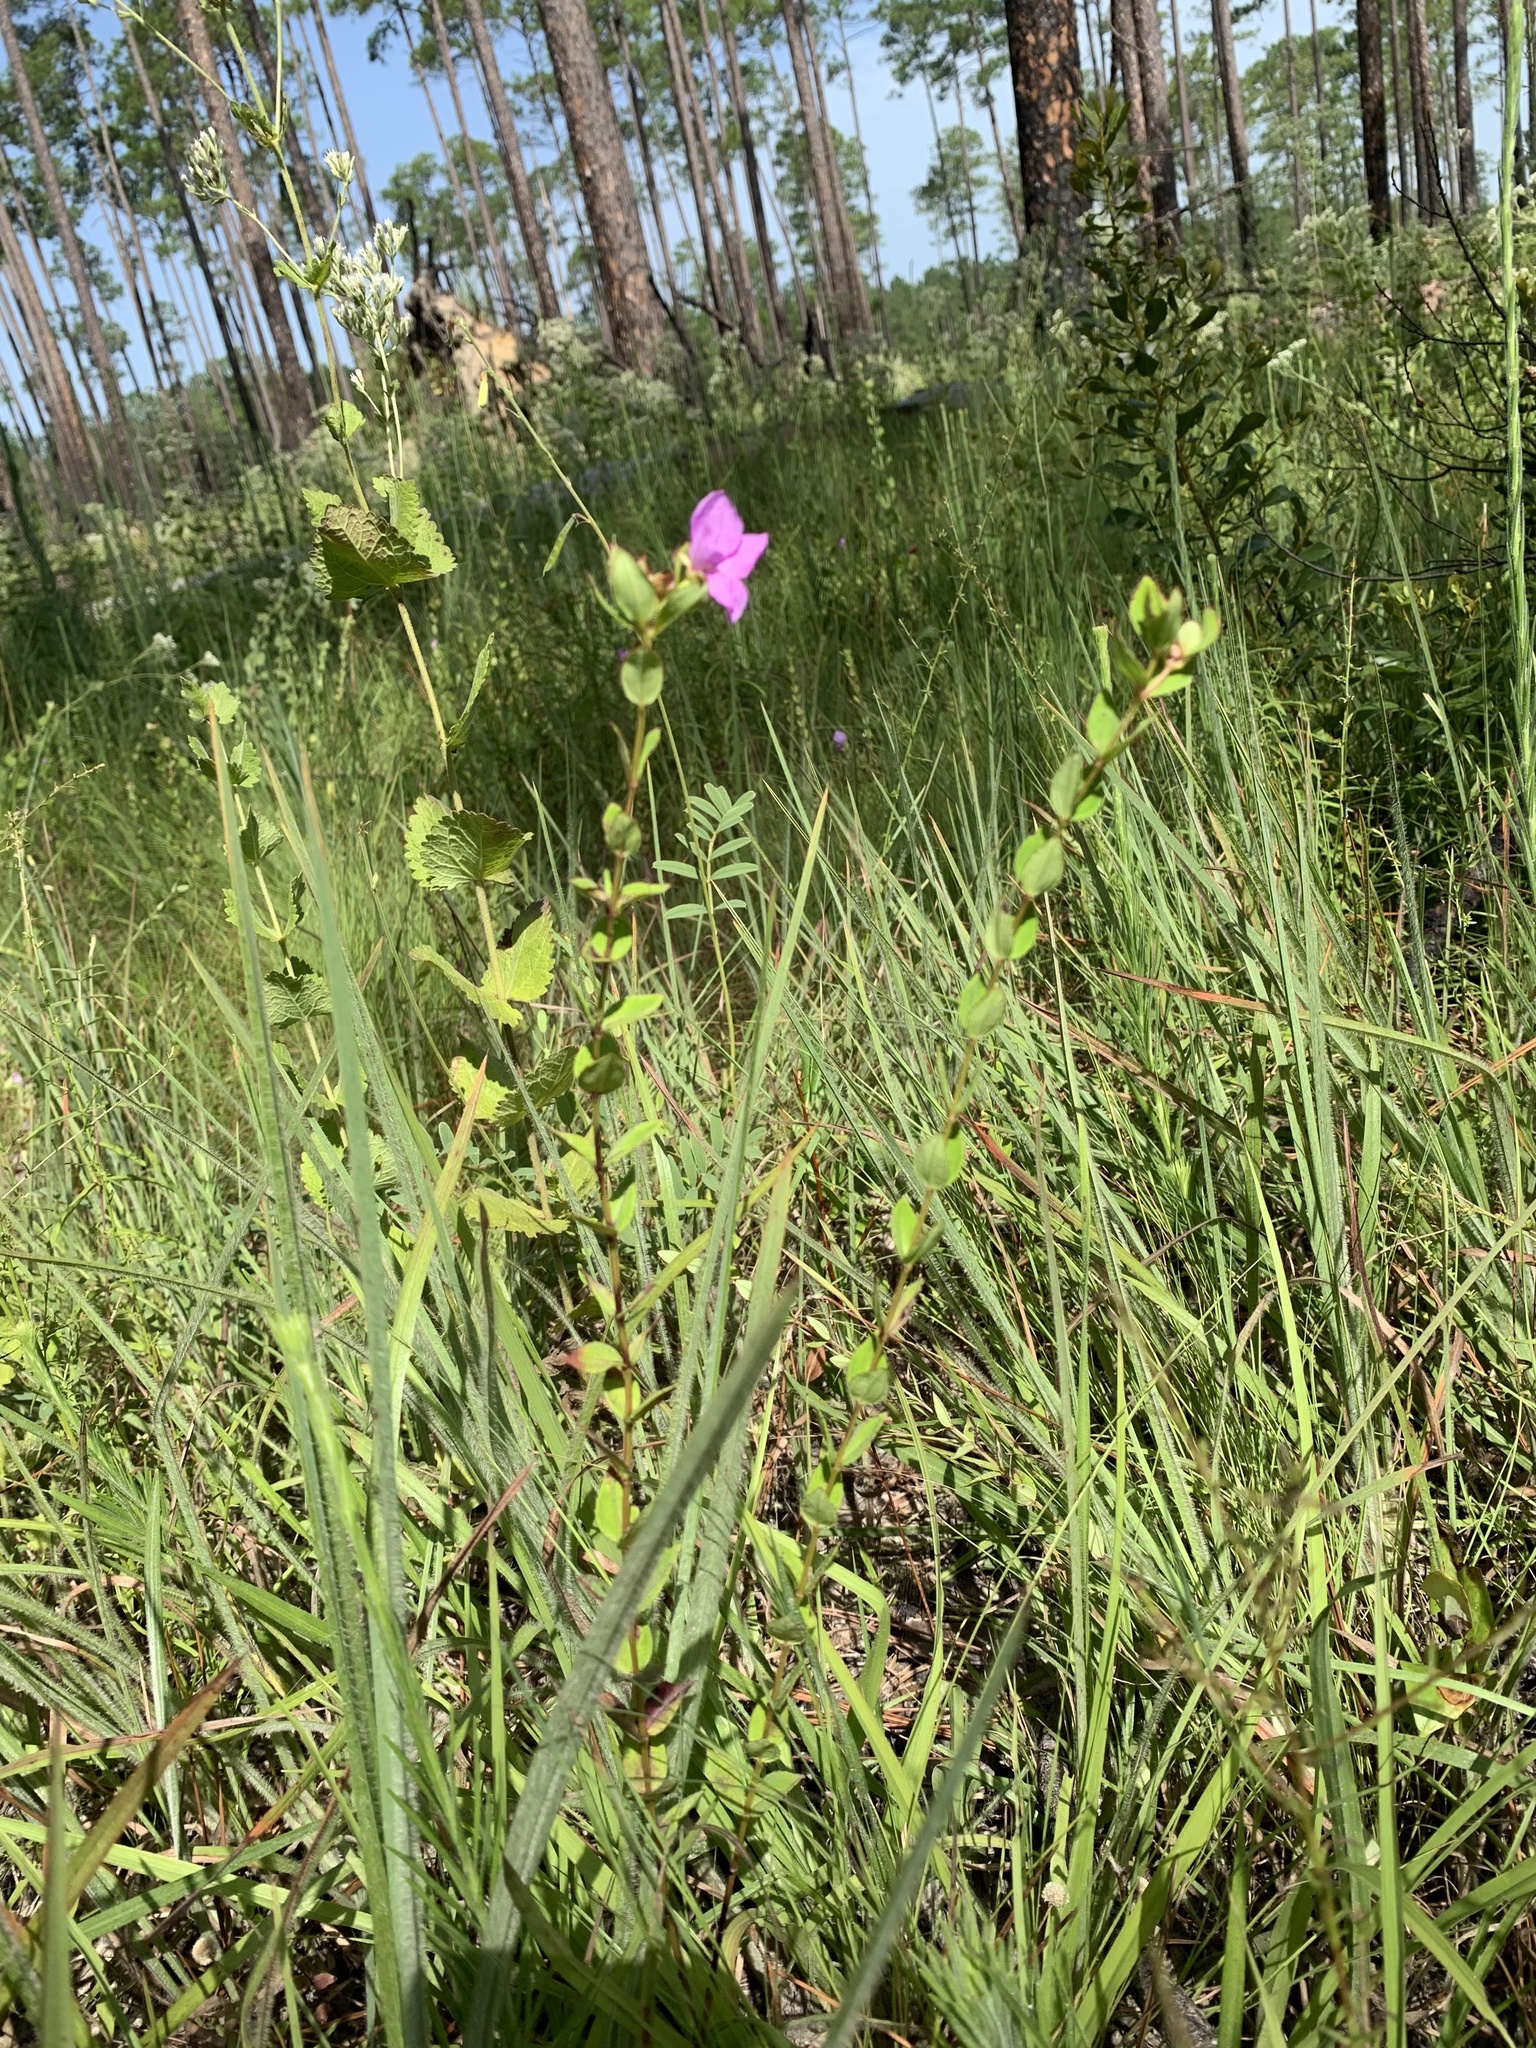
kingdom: Plantae
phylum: Tracheophyta
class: Magnoliopsida
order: Myrtales
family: Melastomataceae
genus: Rhexia
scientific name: Rhexia petiolata
